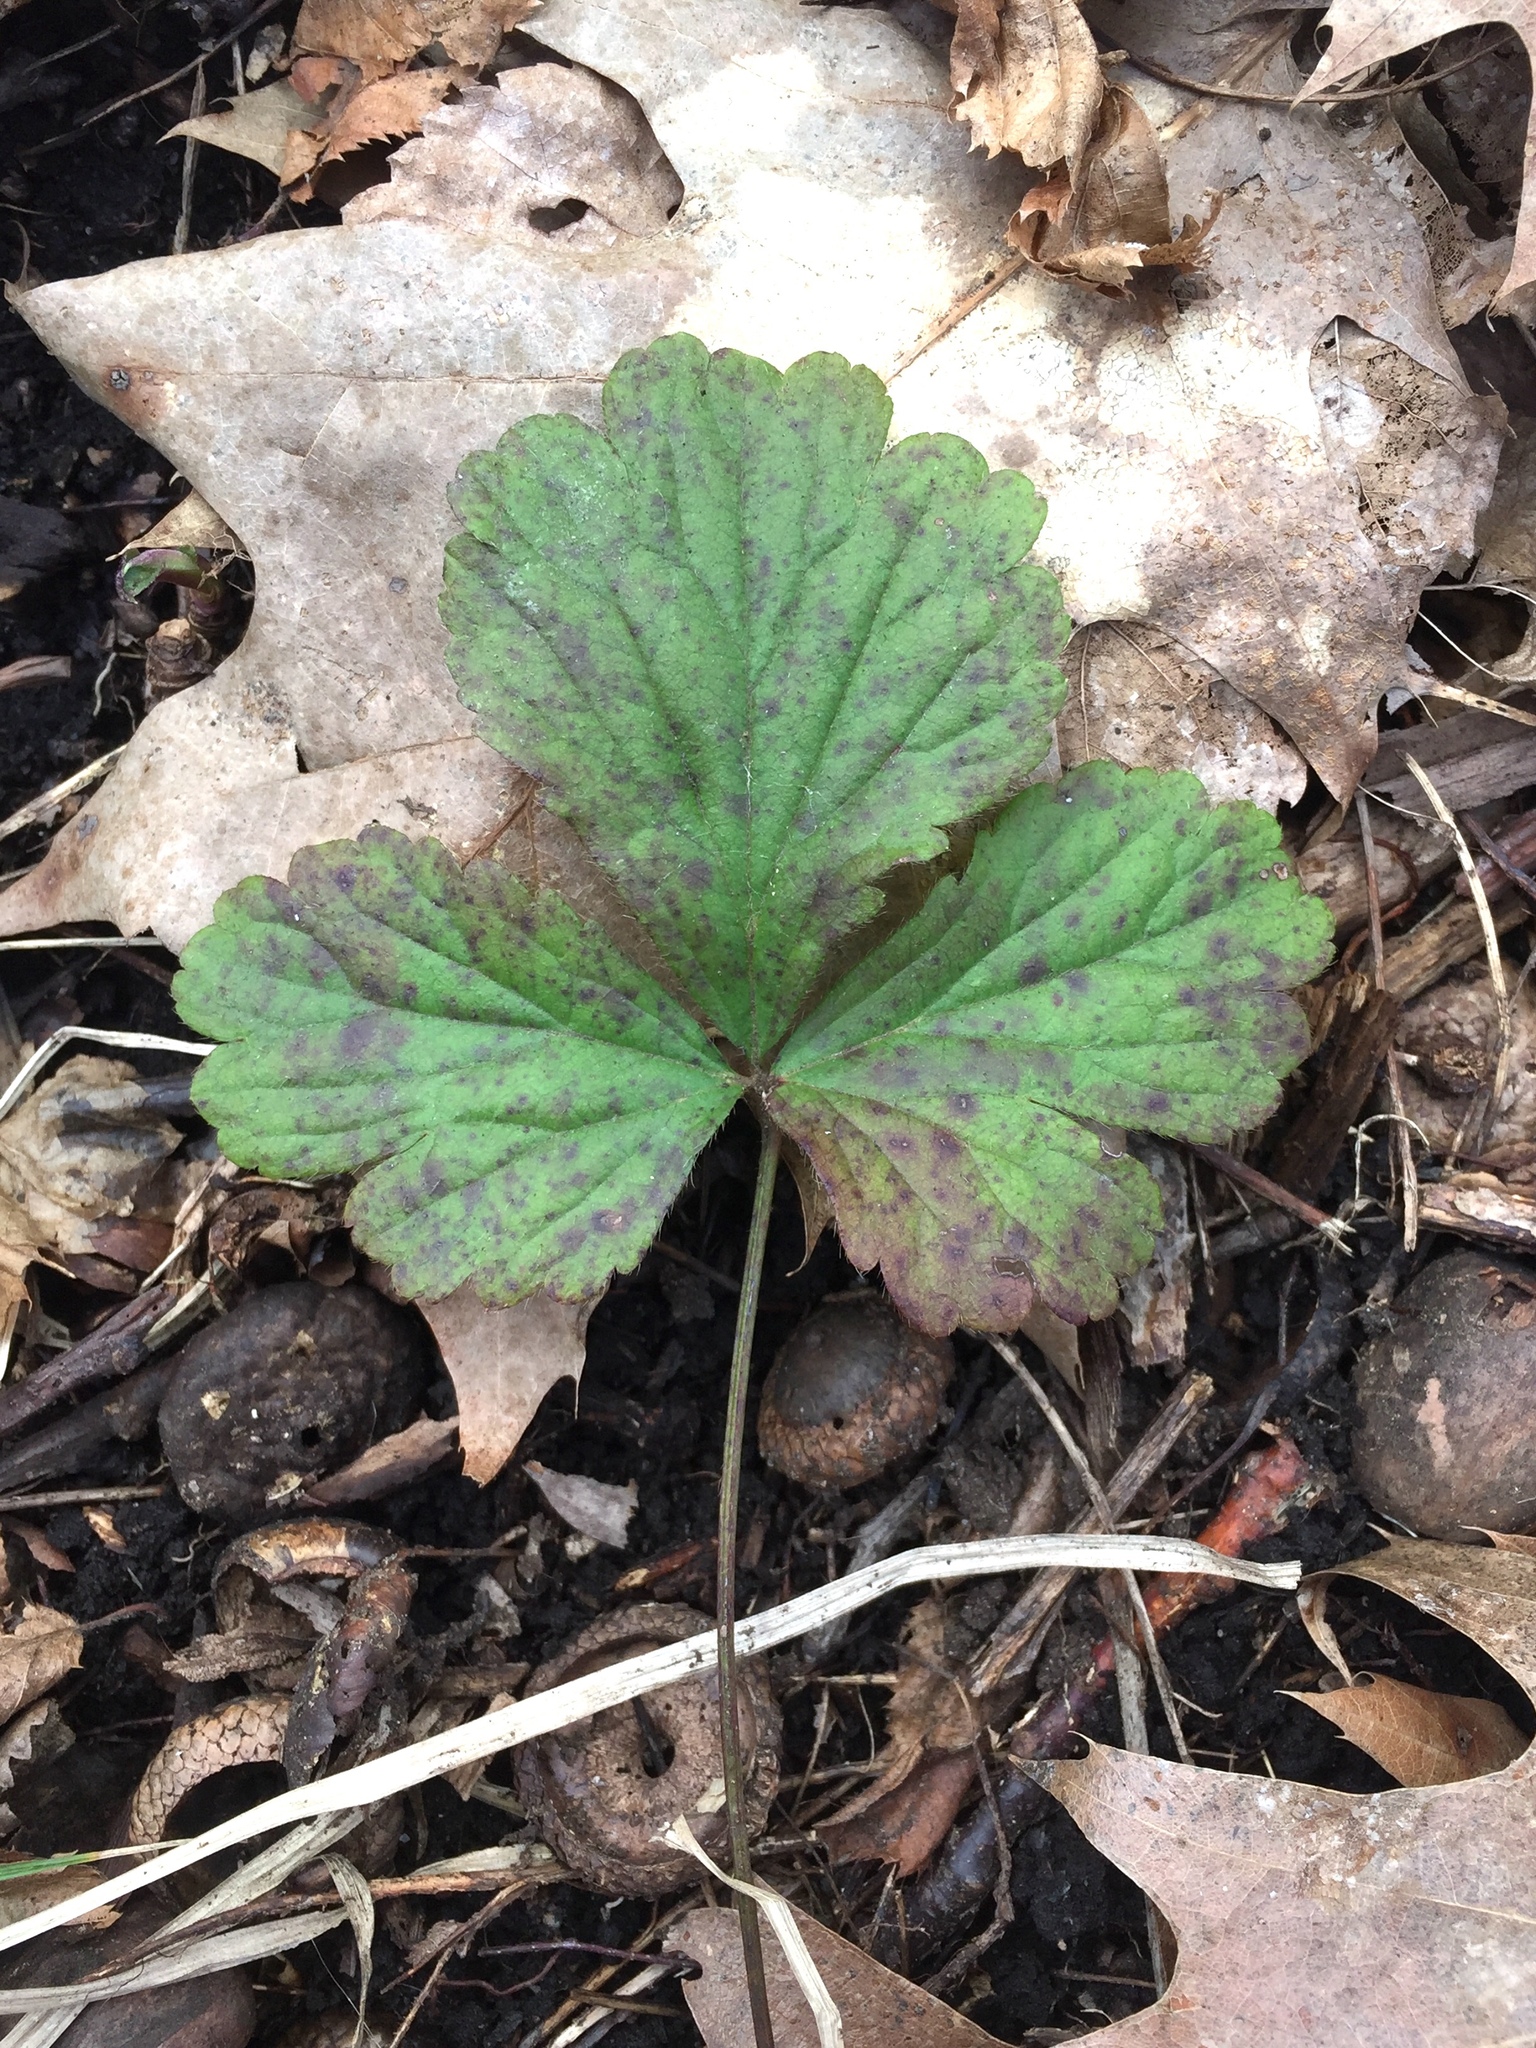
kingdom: Plantae
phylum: Tracheophyta
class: Magnoliopsida
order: Rosales
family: Rosaceae
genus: Geum
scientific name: Geum fragarioides
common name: Appalachian barren strawberry
